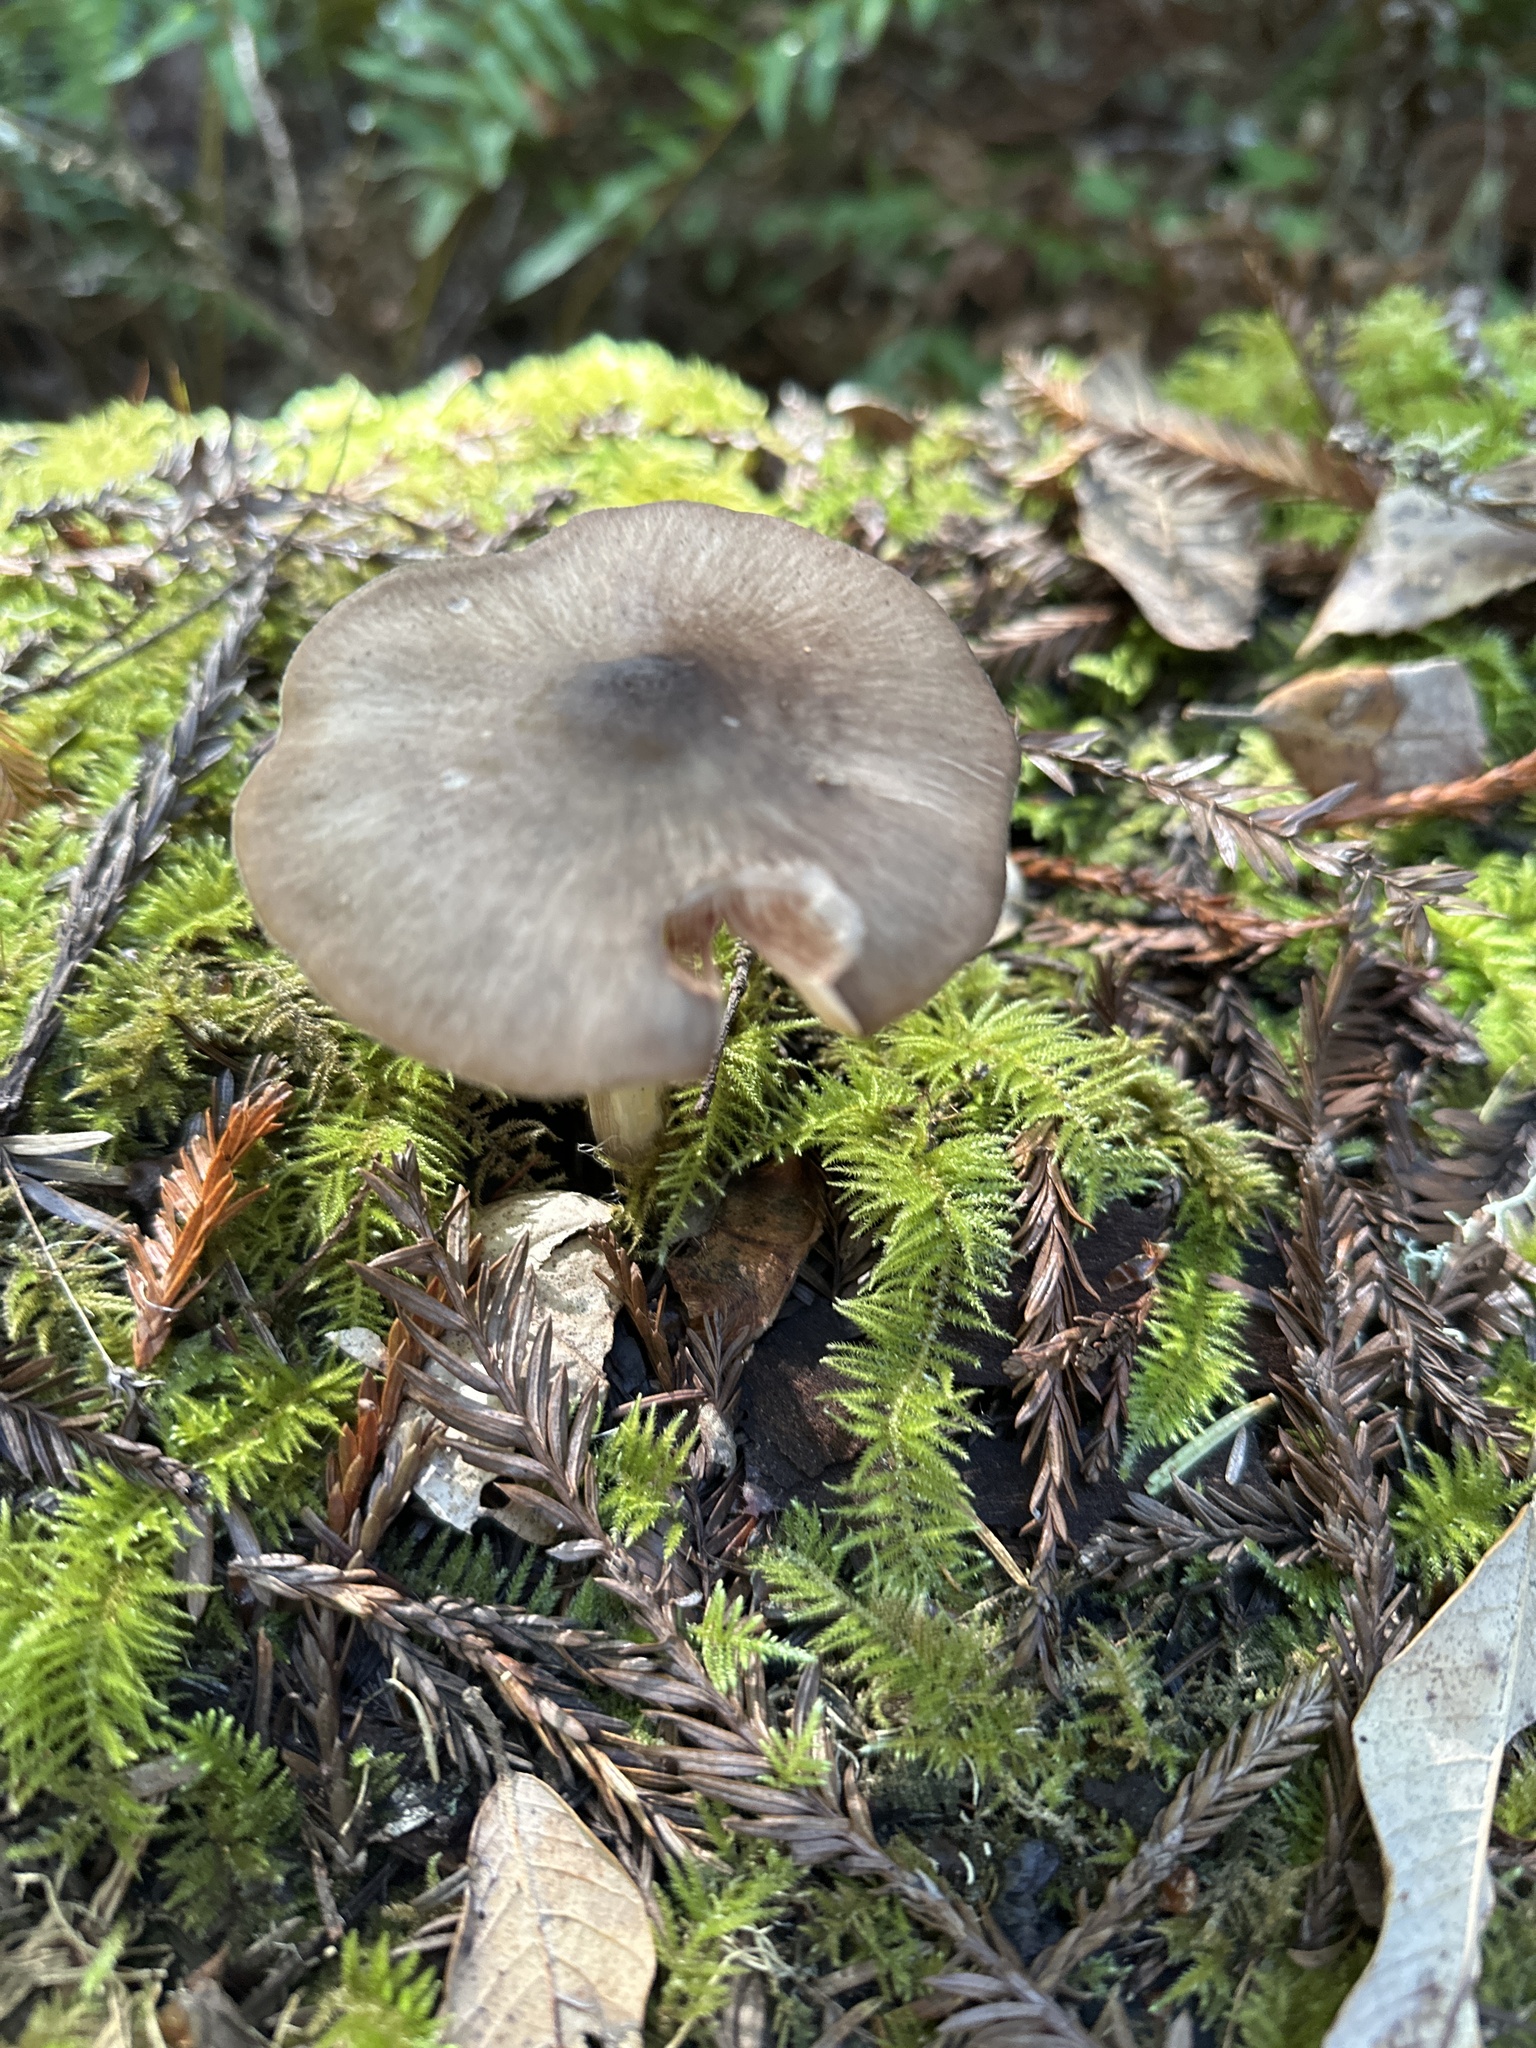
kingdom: Fungi
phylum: Basidiomycota
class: Agaricomycetes
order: Agaricales
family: Pluteaceae
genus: Pluteus
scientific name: Pluteus exilis
